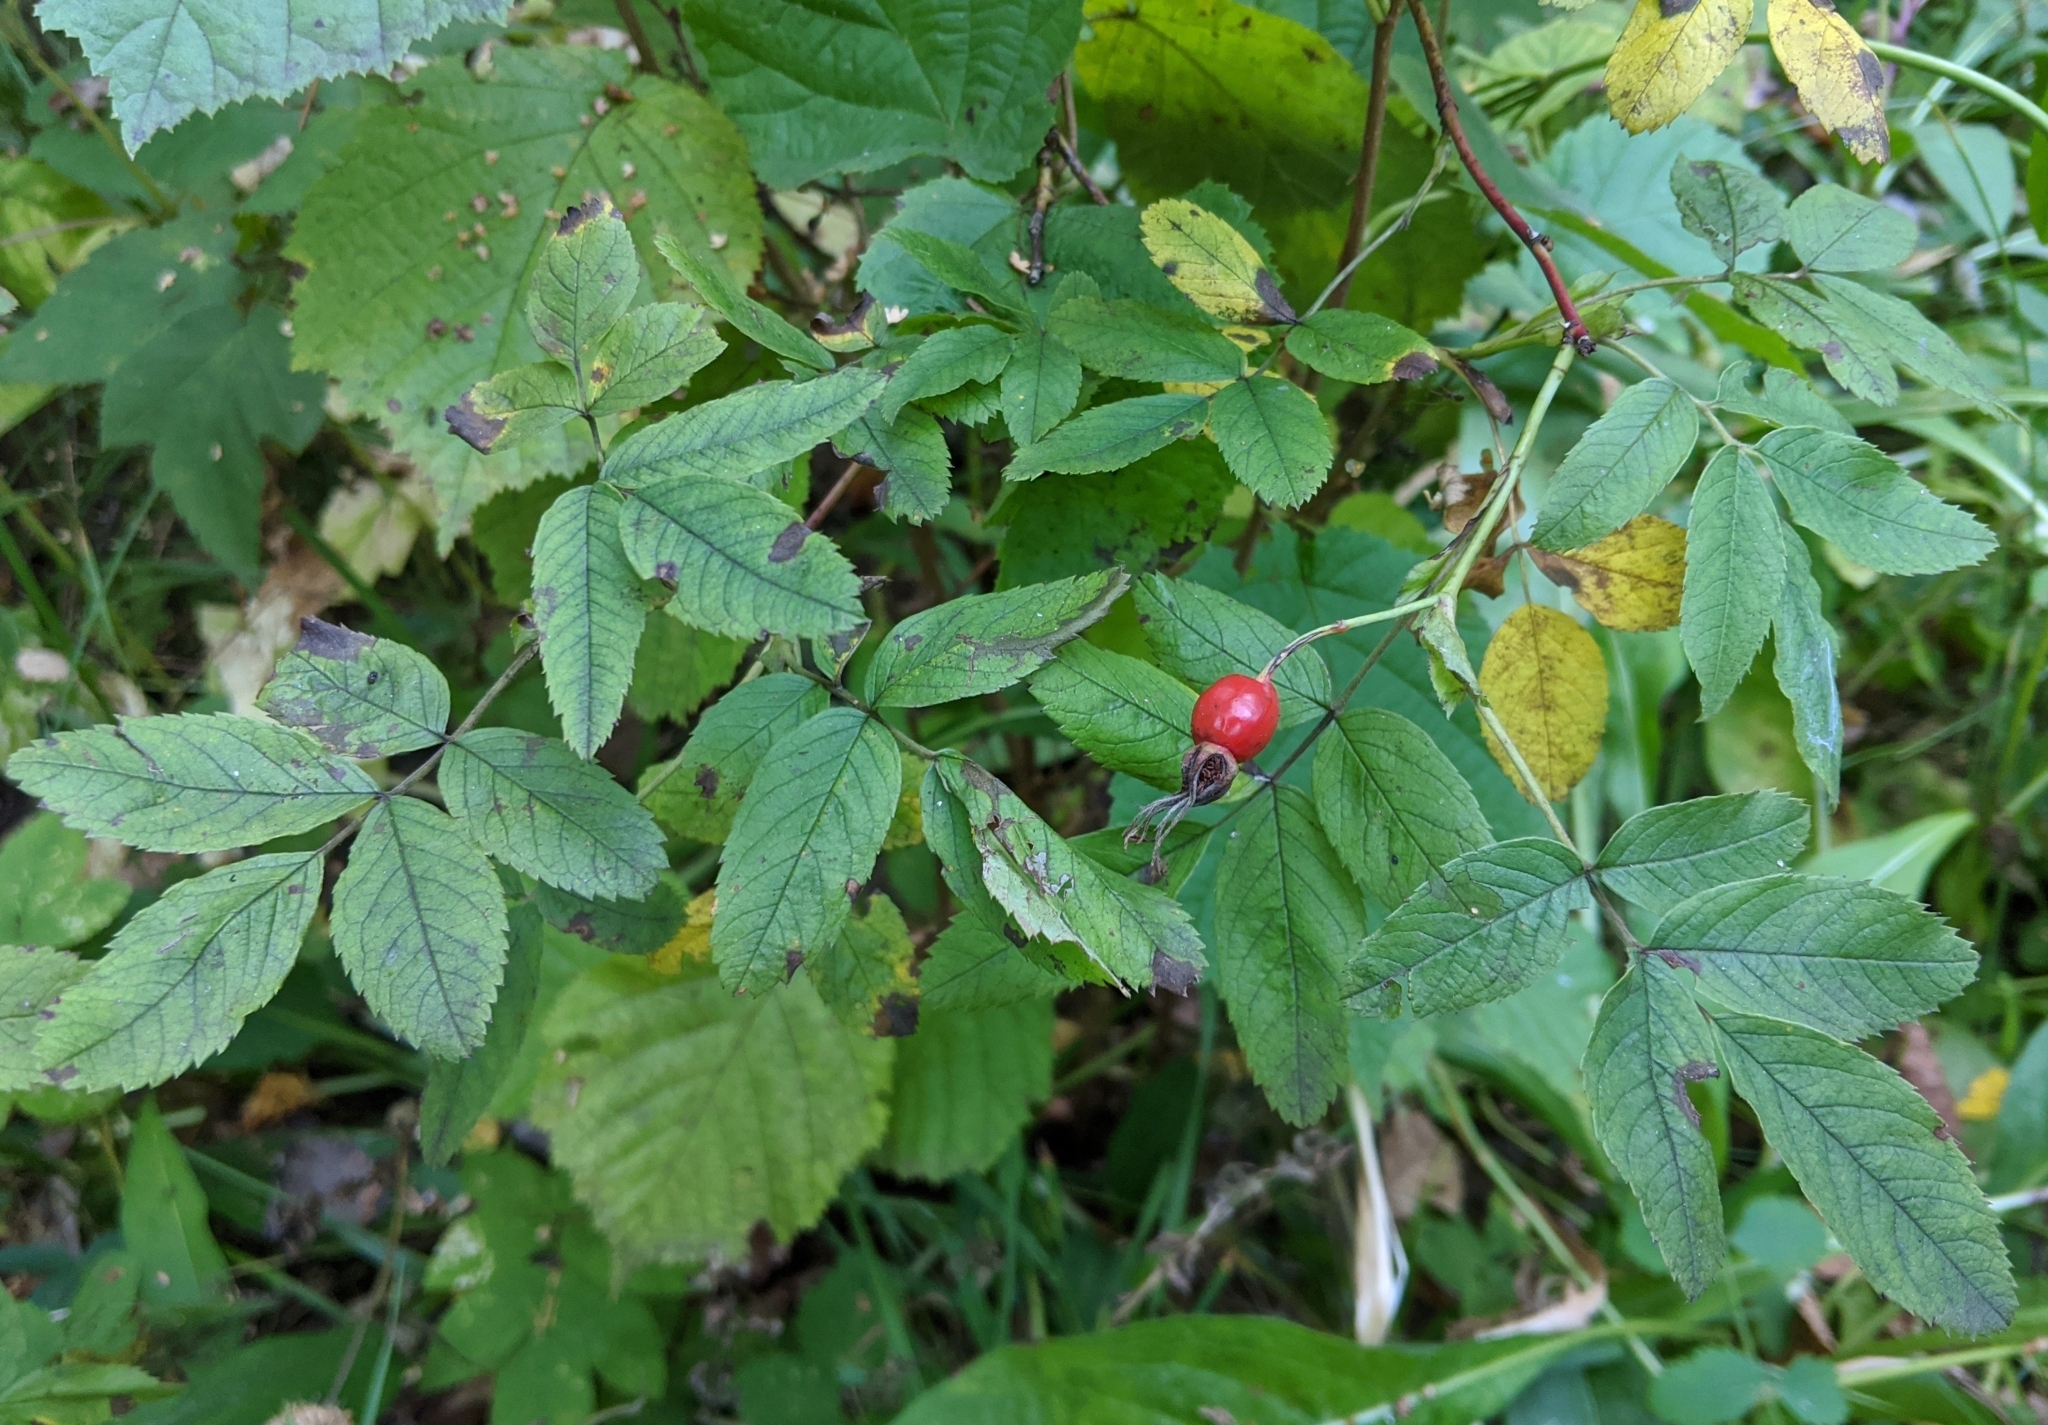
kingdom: Plantae
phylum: Tracheophyta
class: Magnoliopsida
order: Rosales
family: Rosaceae
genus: Rosa
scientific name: Rosa
